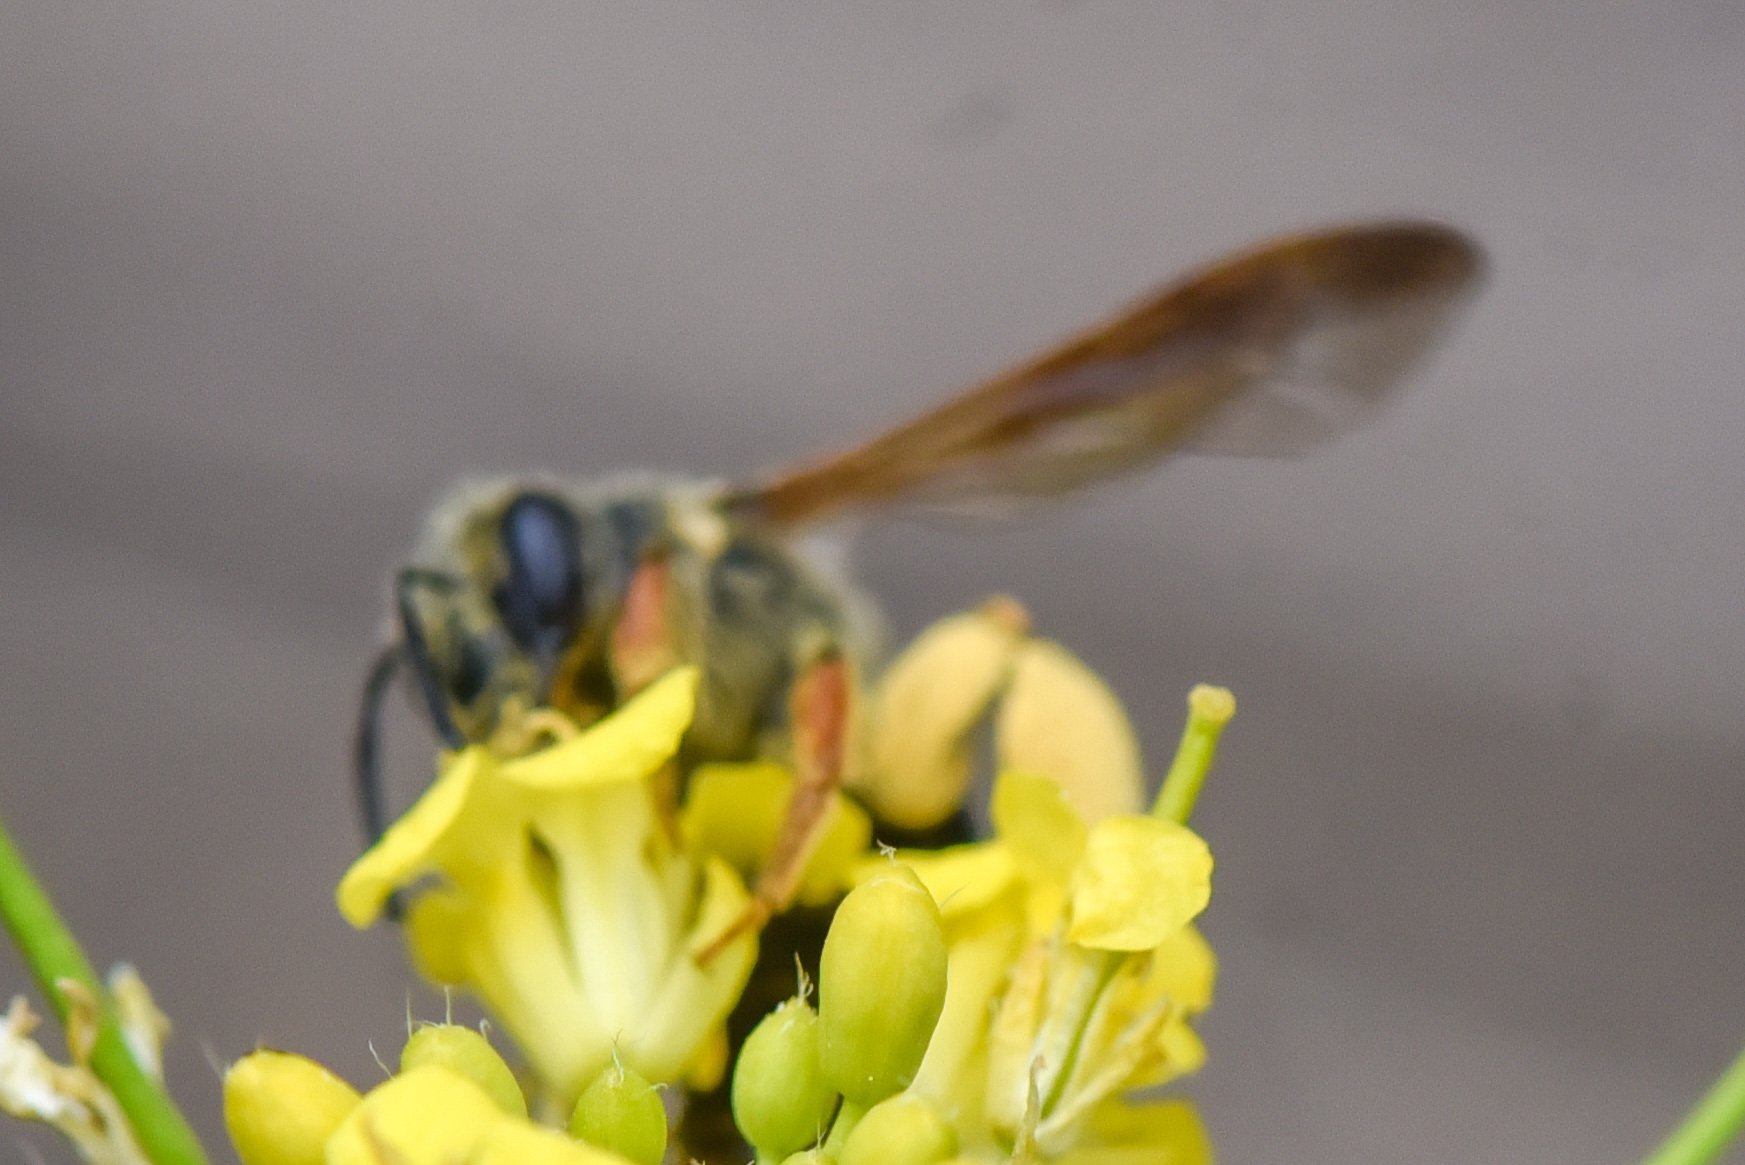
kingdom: Animalia
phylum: Arthropoda
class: Insecta
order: Hymenoptera
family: Andrenidae
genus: Andrena
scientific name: Andrena prunorum
